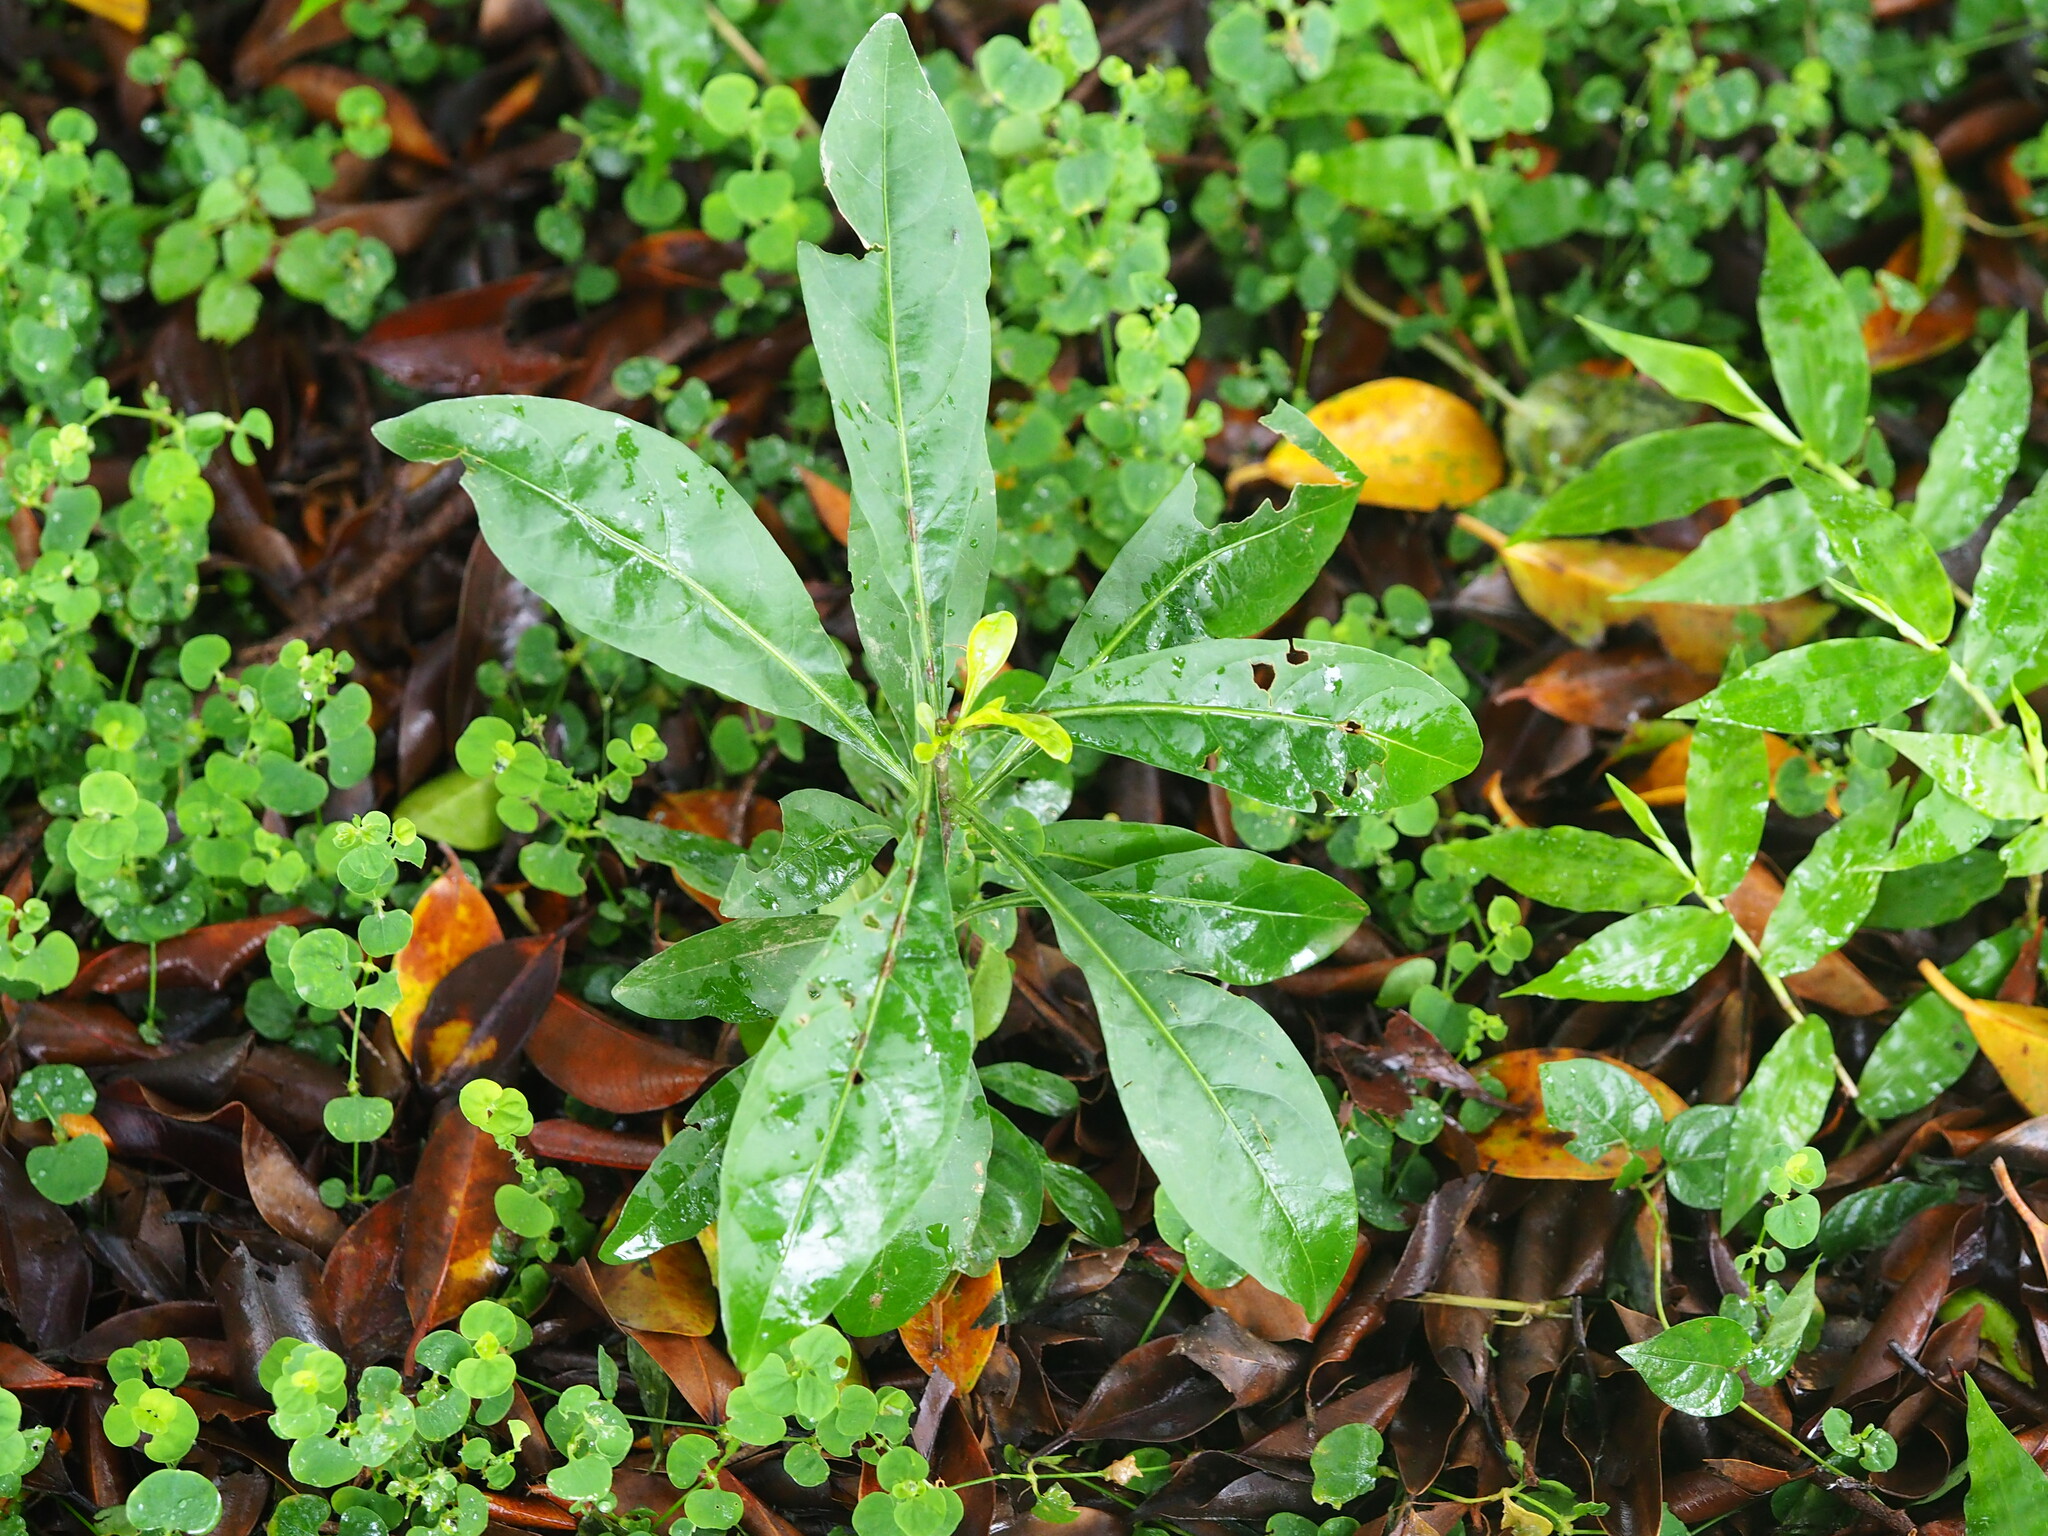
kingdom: Plantae
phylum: Tracheophyta
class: Magnoliopsida
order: Solanales
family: Solanaceae
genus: Solanum
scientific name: Solanum diphyllum
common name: Twoleaf nightshade
